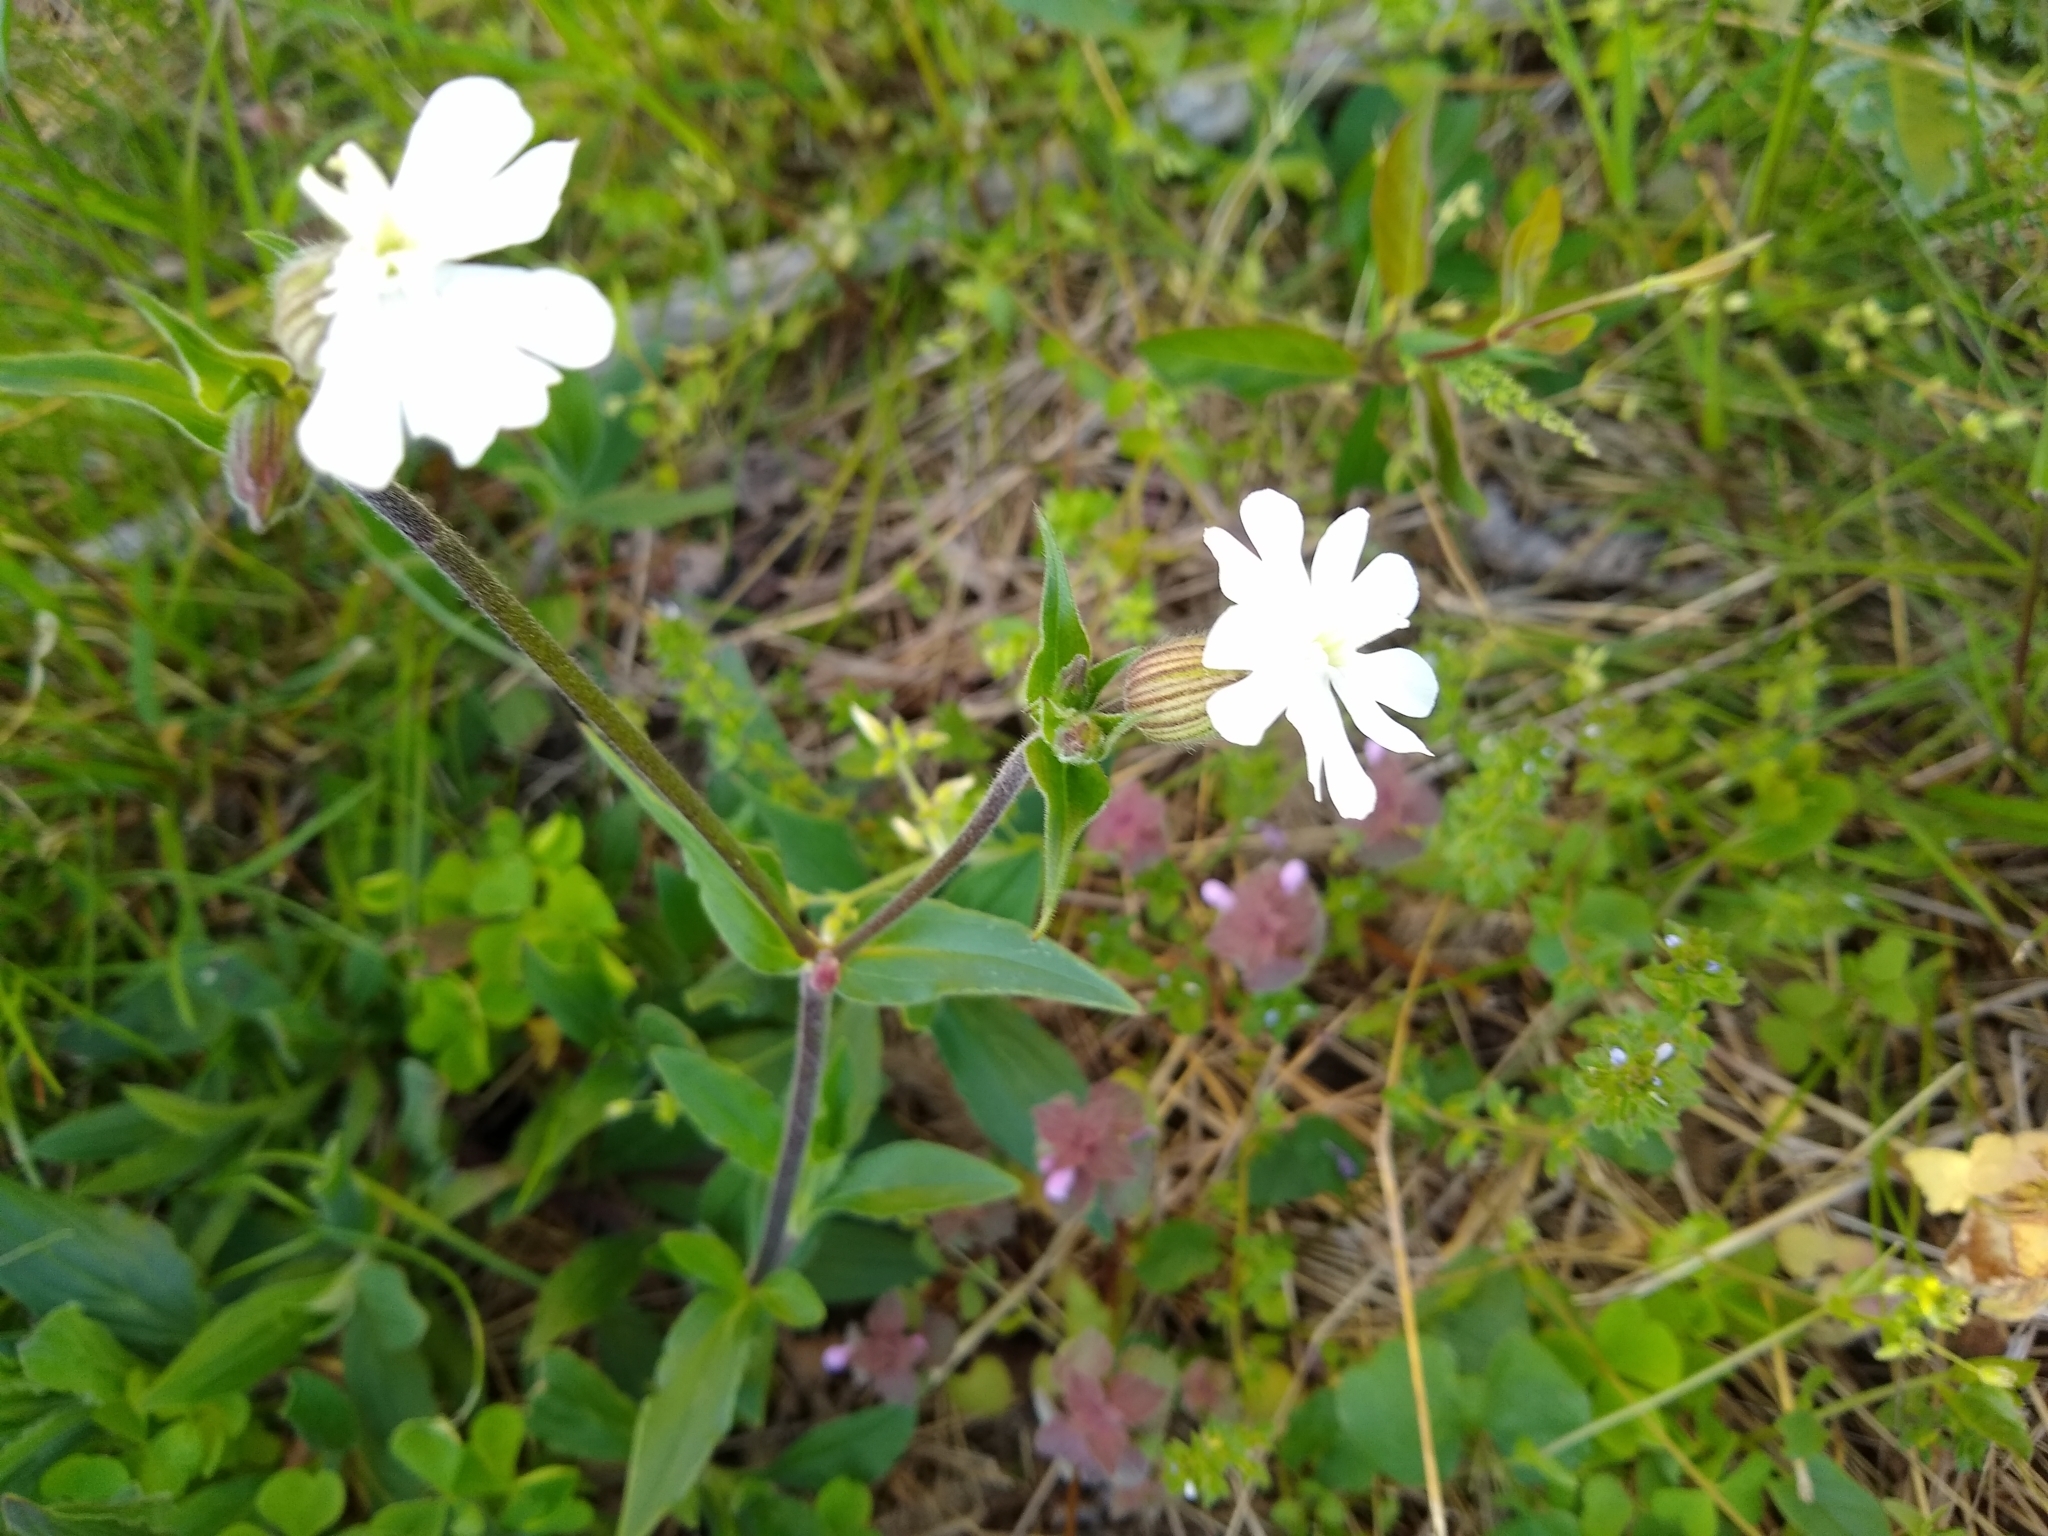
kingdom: Plantae
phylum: Tracheophyta
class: Magnoliopsida
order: Caryophyllales
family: Caryophyllaceae
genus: Silene
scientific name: Silene latifolia
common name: White campion
